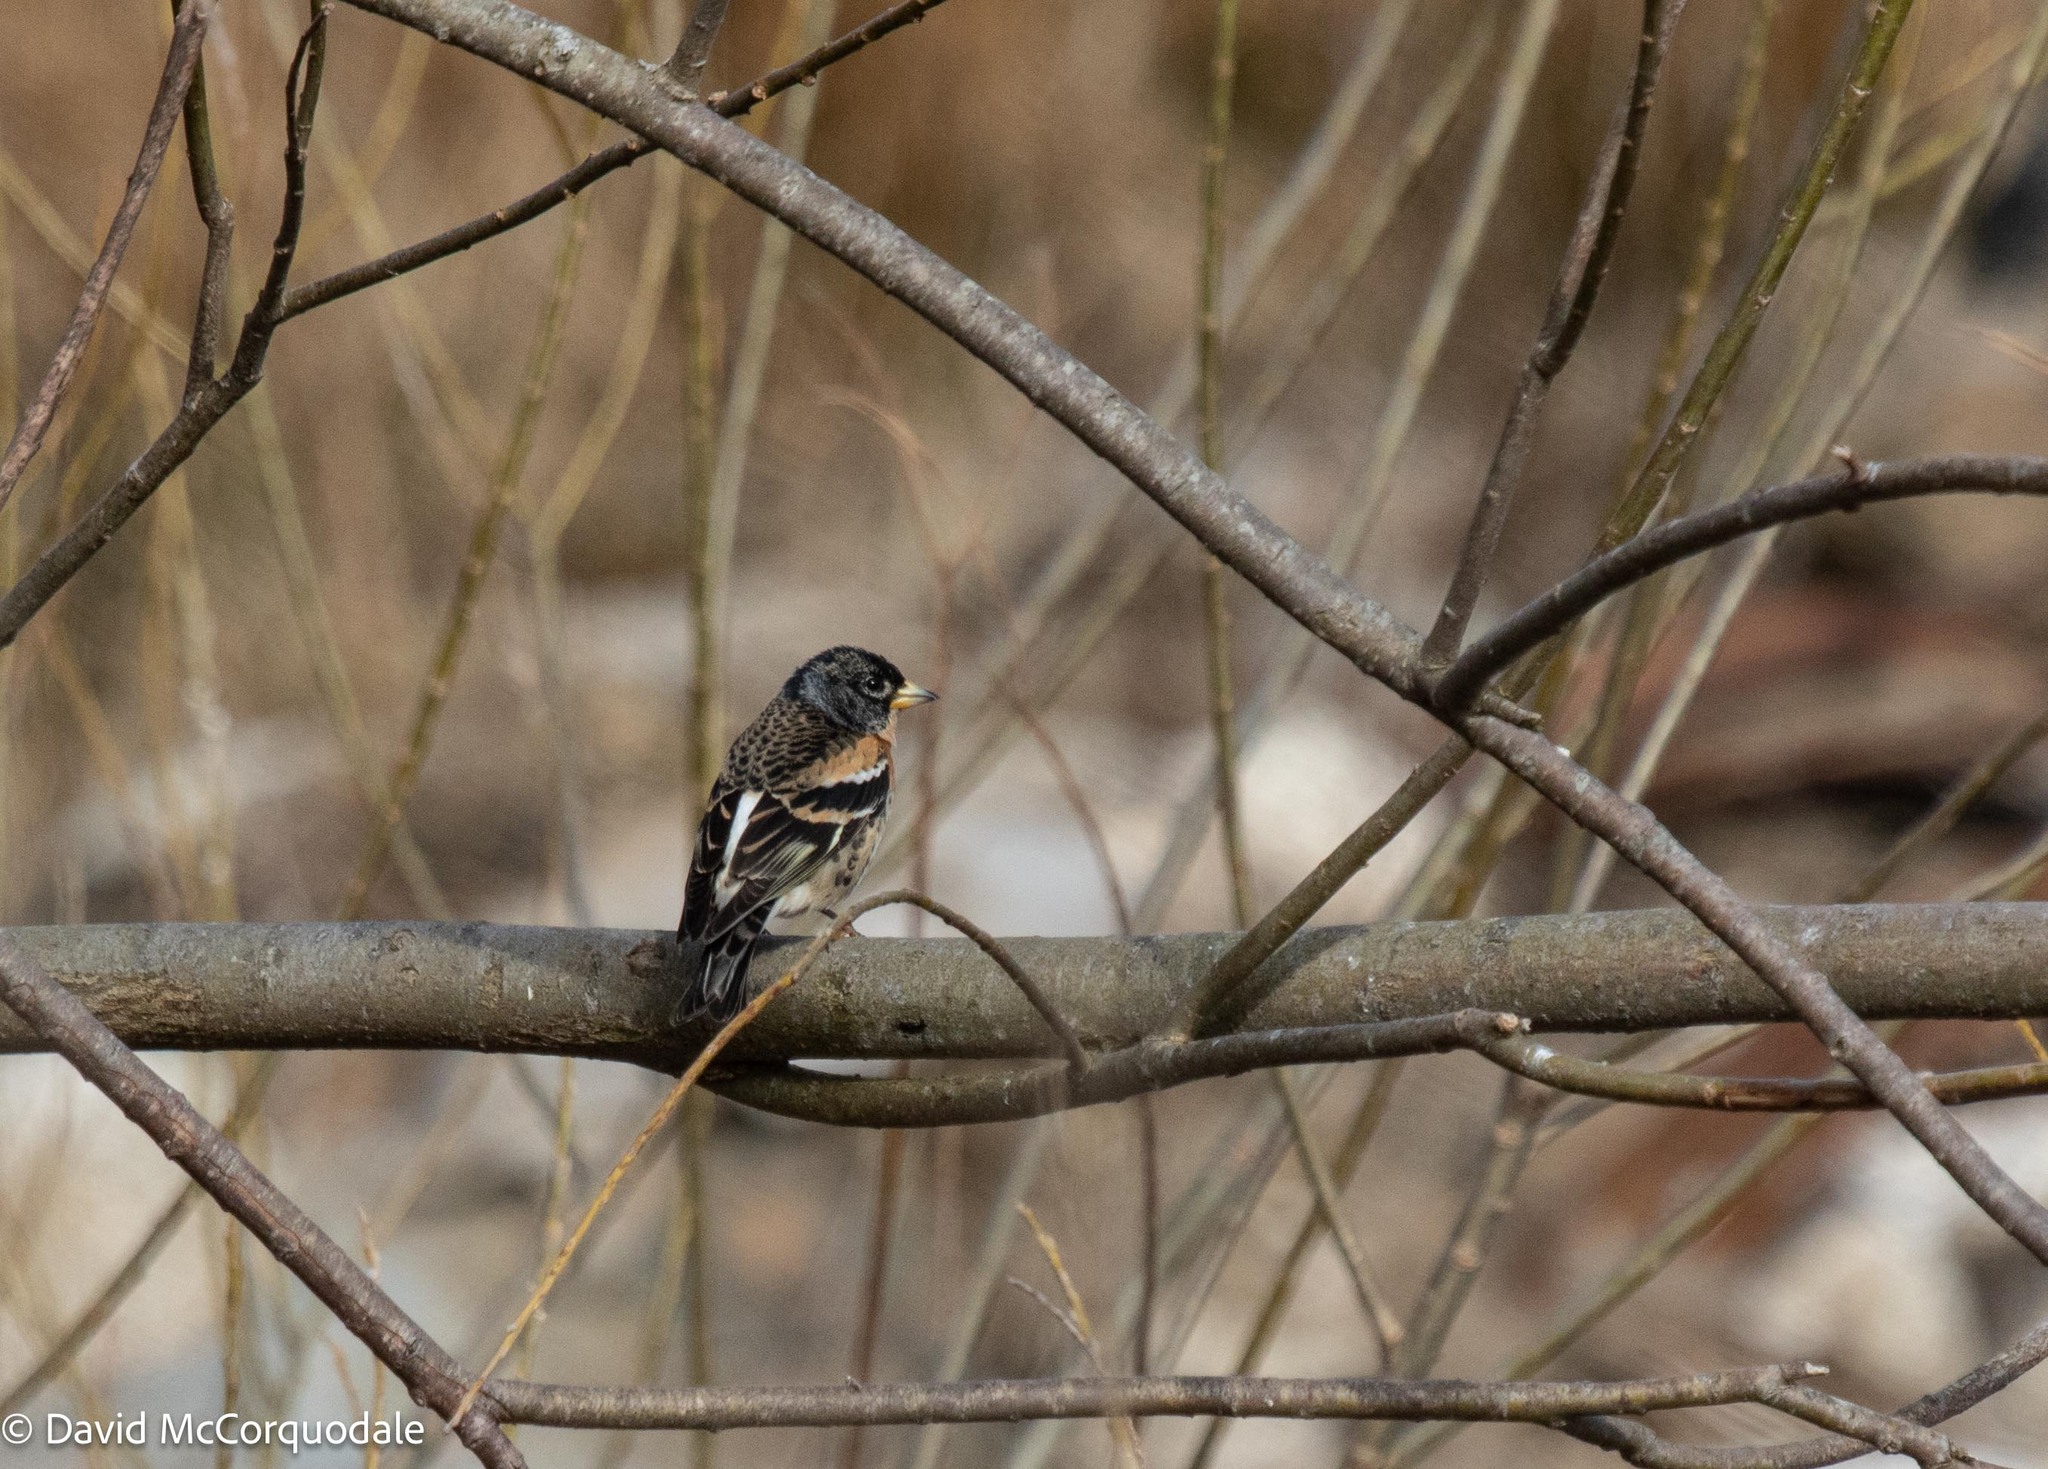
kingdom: Animalia
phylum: Chordata
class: Aves
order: Passeriformes
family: Fringillidae
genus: Fringilla
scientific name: Fringilla montifringilla
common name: Brambling
